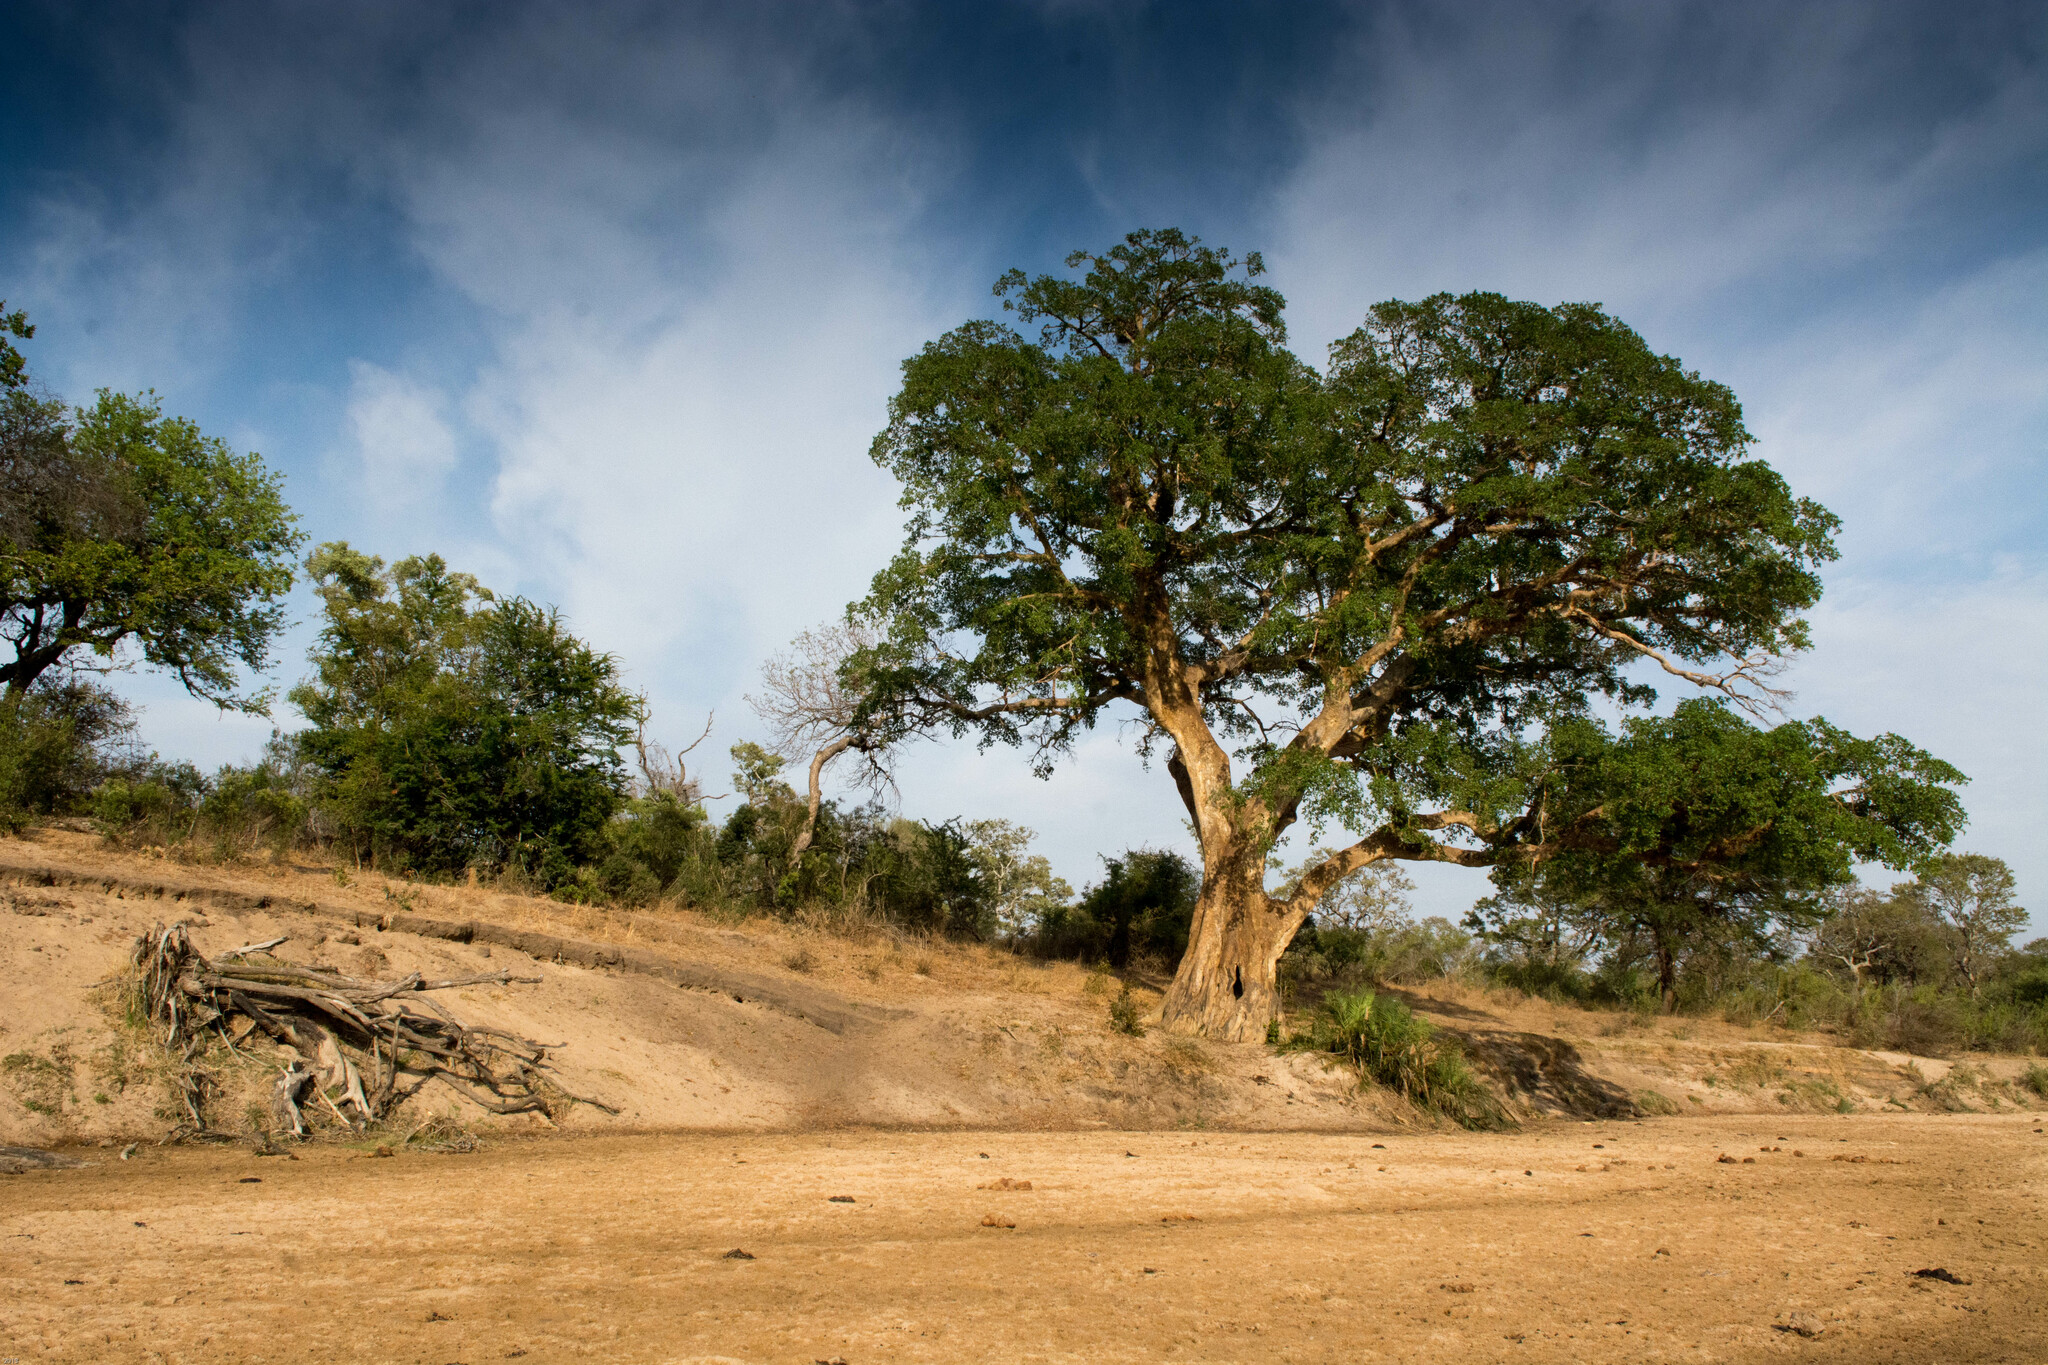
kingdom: Plantae
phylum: Tracheophyta
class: Magnoliopsida
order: Rosales
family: Moraceae
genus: Ficus
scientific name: Ficus sycomorus
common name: Sycomore
